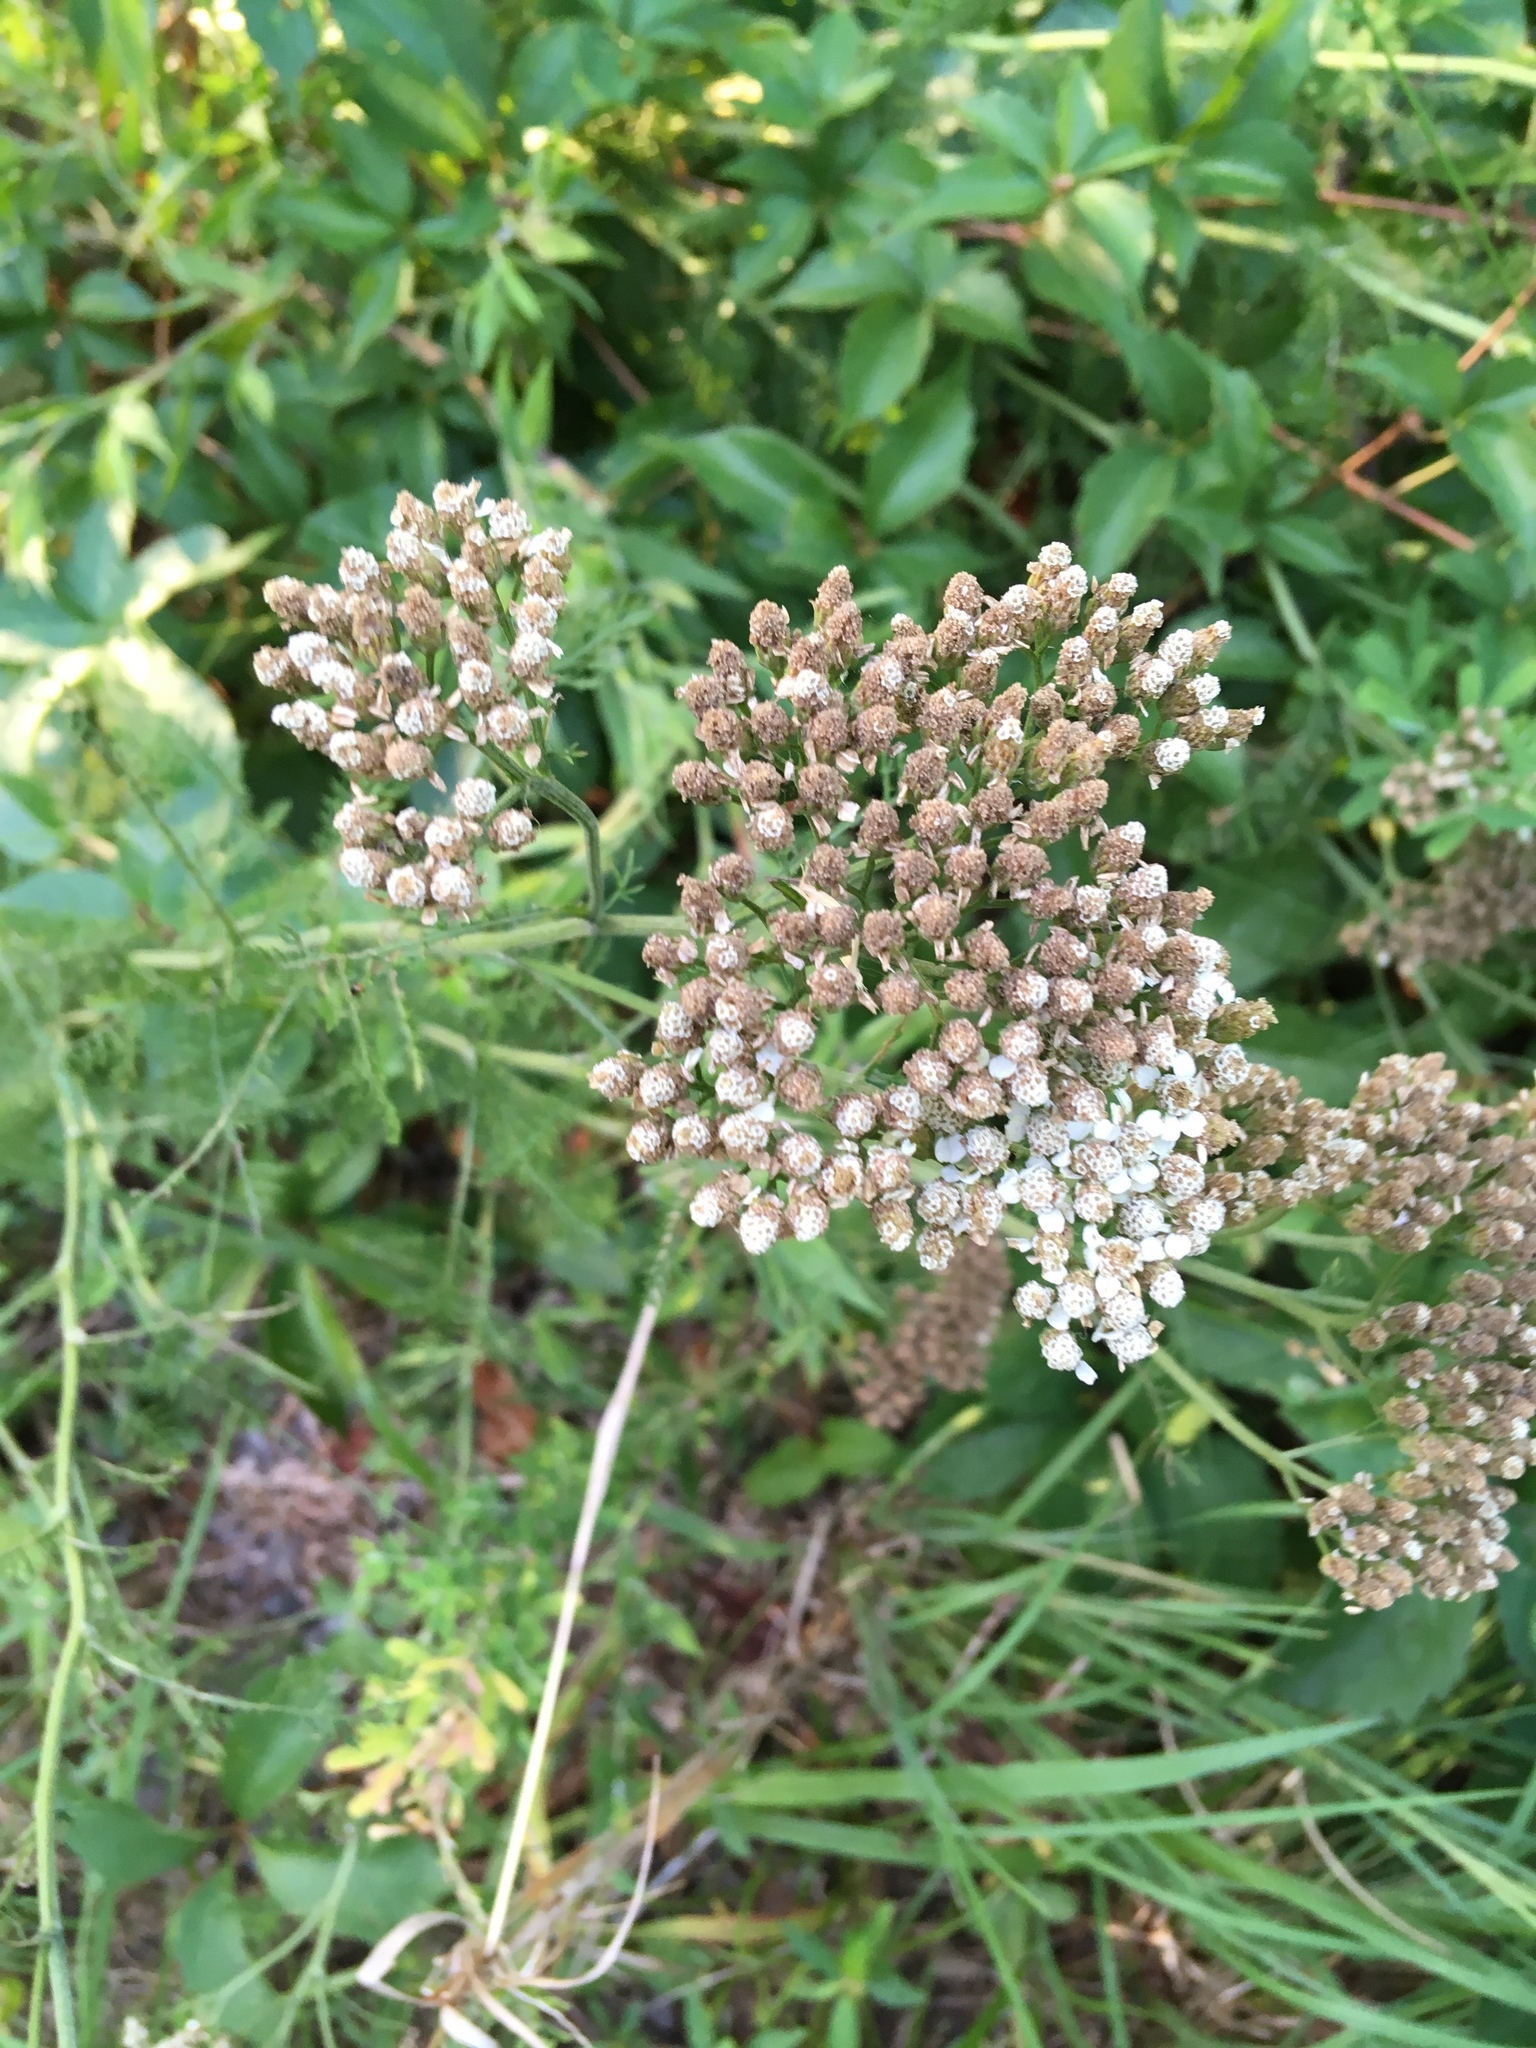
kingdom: Plantae
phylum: Tracheophyta
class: Magnoliopsida
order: Asterales
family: Asteraceae
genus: Achillea
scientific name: Achillea millefolium
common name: Yarrow
